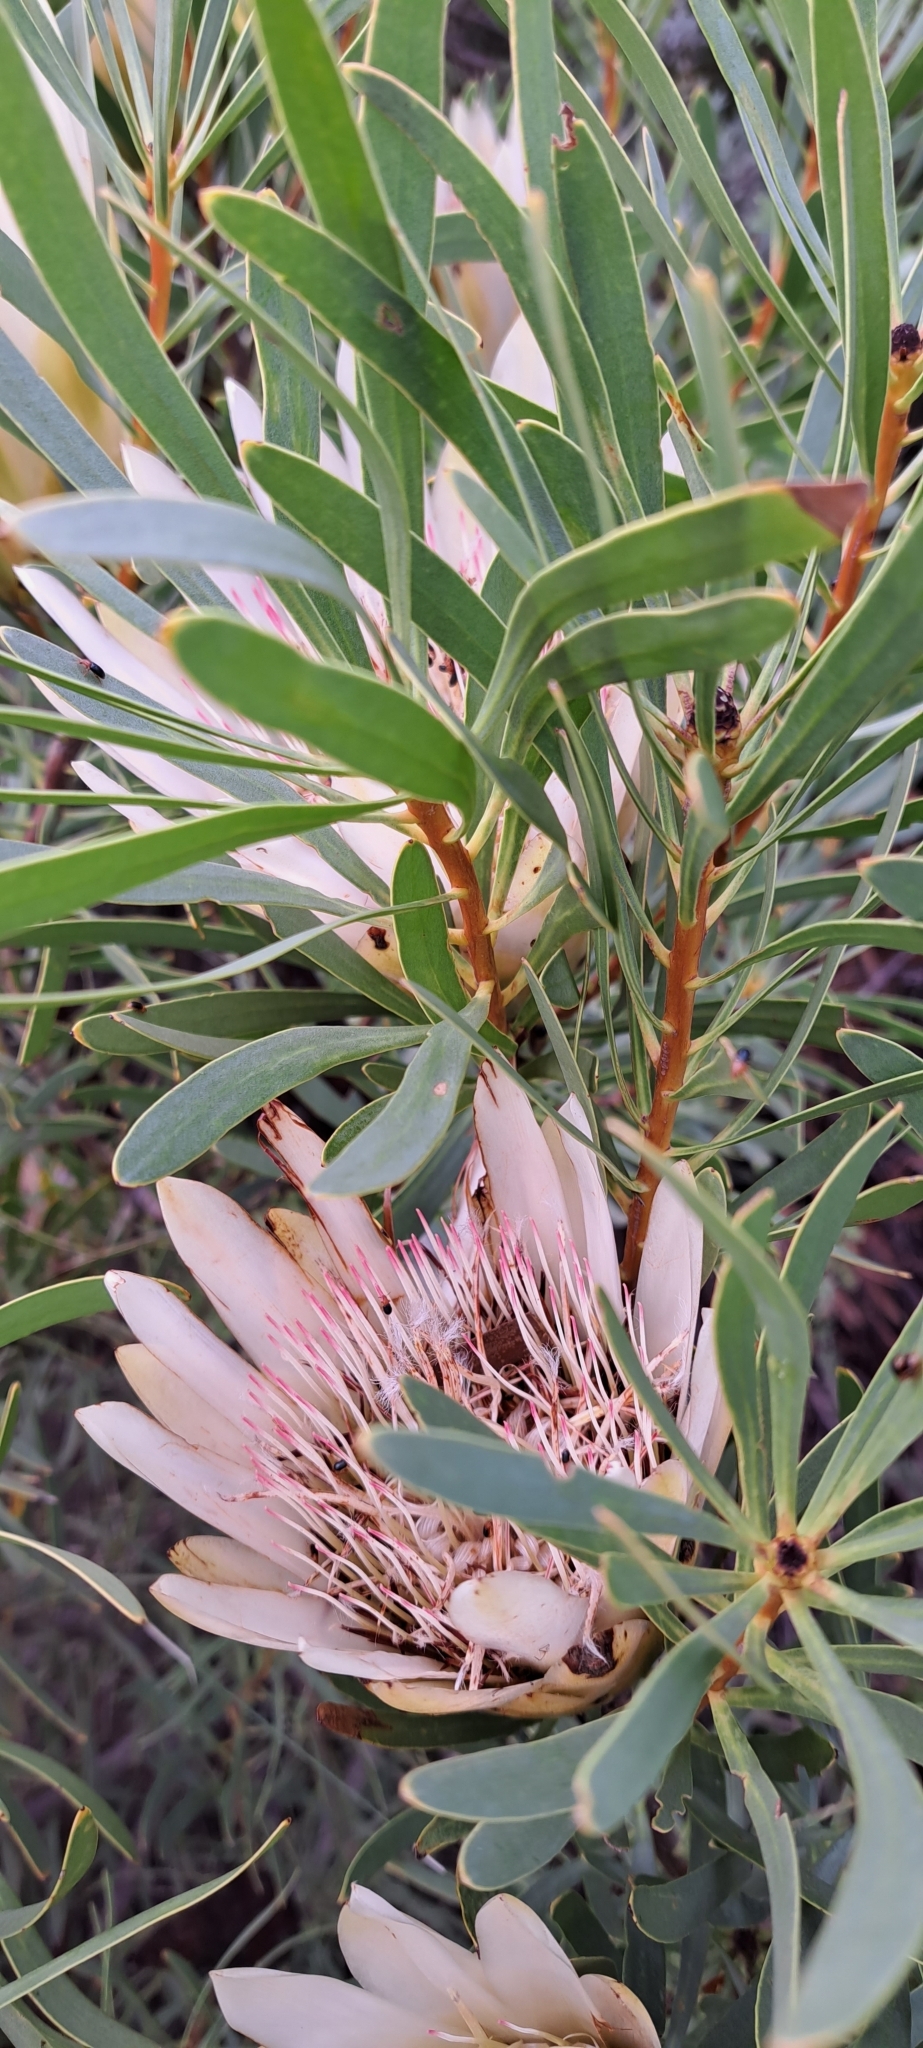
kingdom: Plantae
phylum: Tracheophyta
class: Magnoliopsida
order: Proteales
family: Proteaceae
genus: Protea
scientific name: Protea repens
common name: Sugarbush
